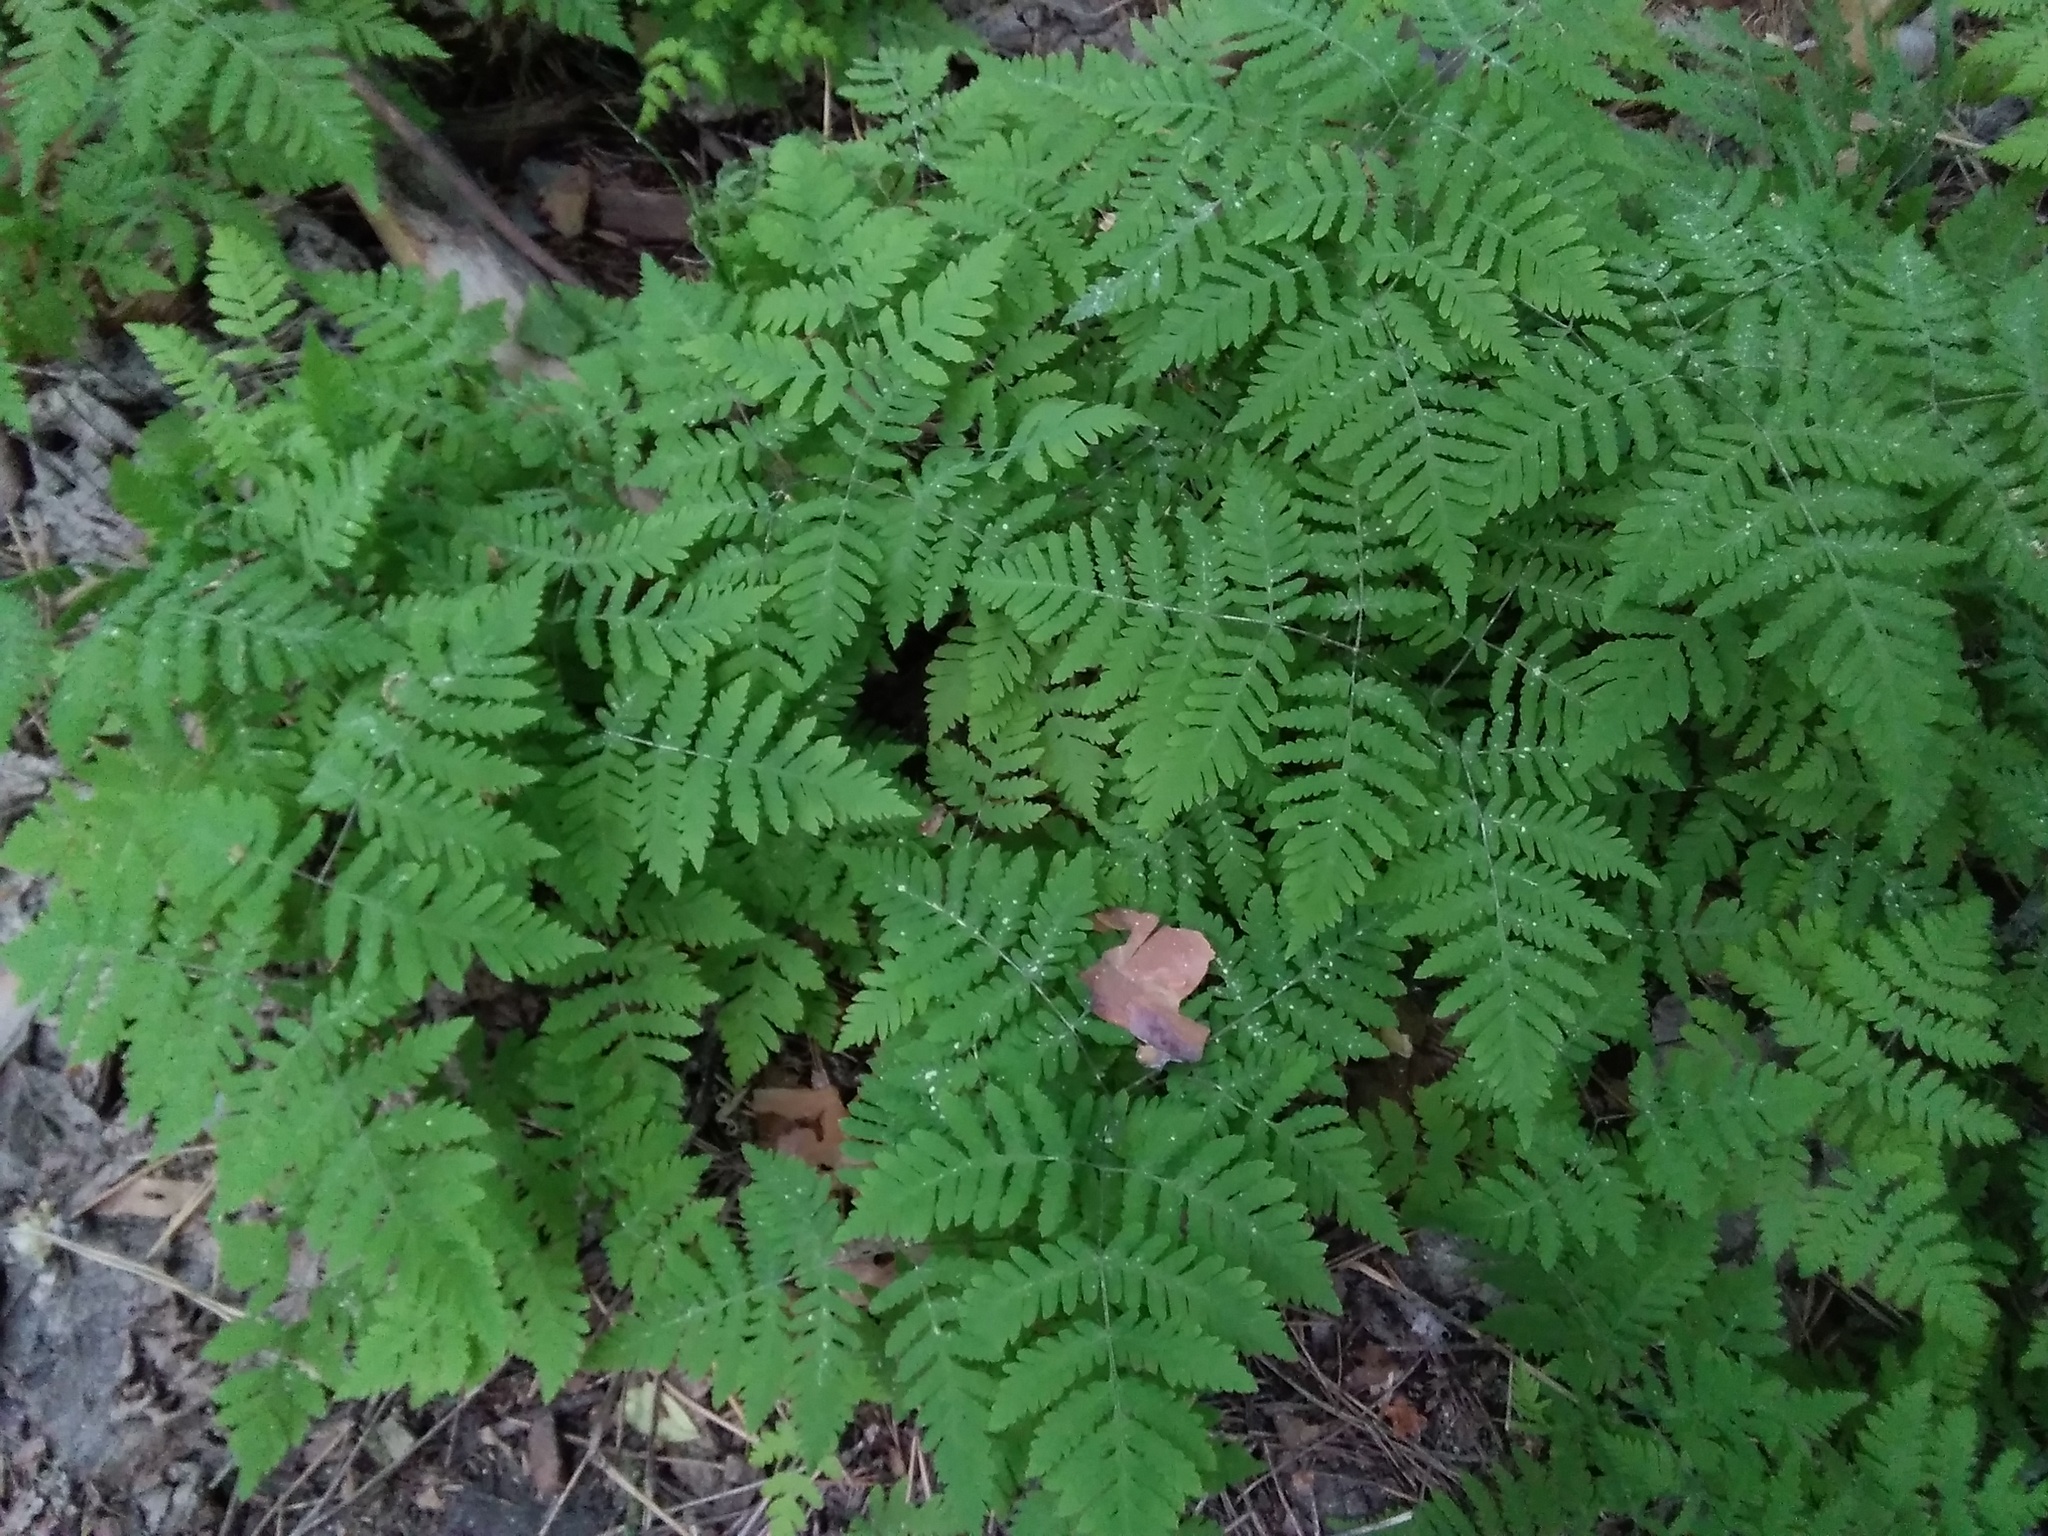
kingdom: Plantae
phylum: Tracheophyta
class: Polypodiopsida
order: Polypodiales
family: Cystopteridaceae
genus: Gymnocarpium
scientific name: Gymnocarpium dryopteris
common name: Oak fern
